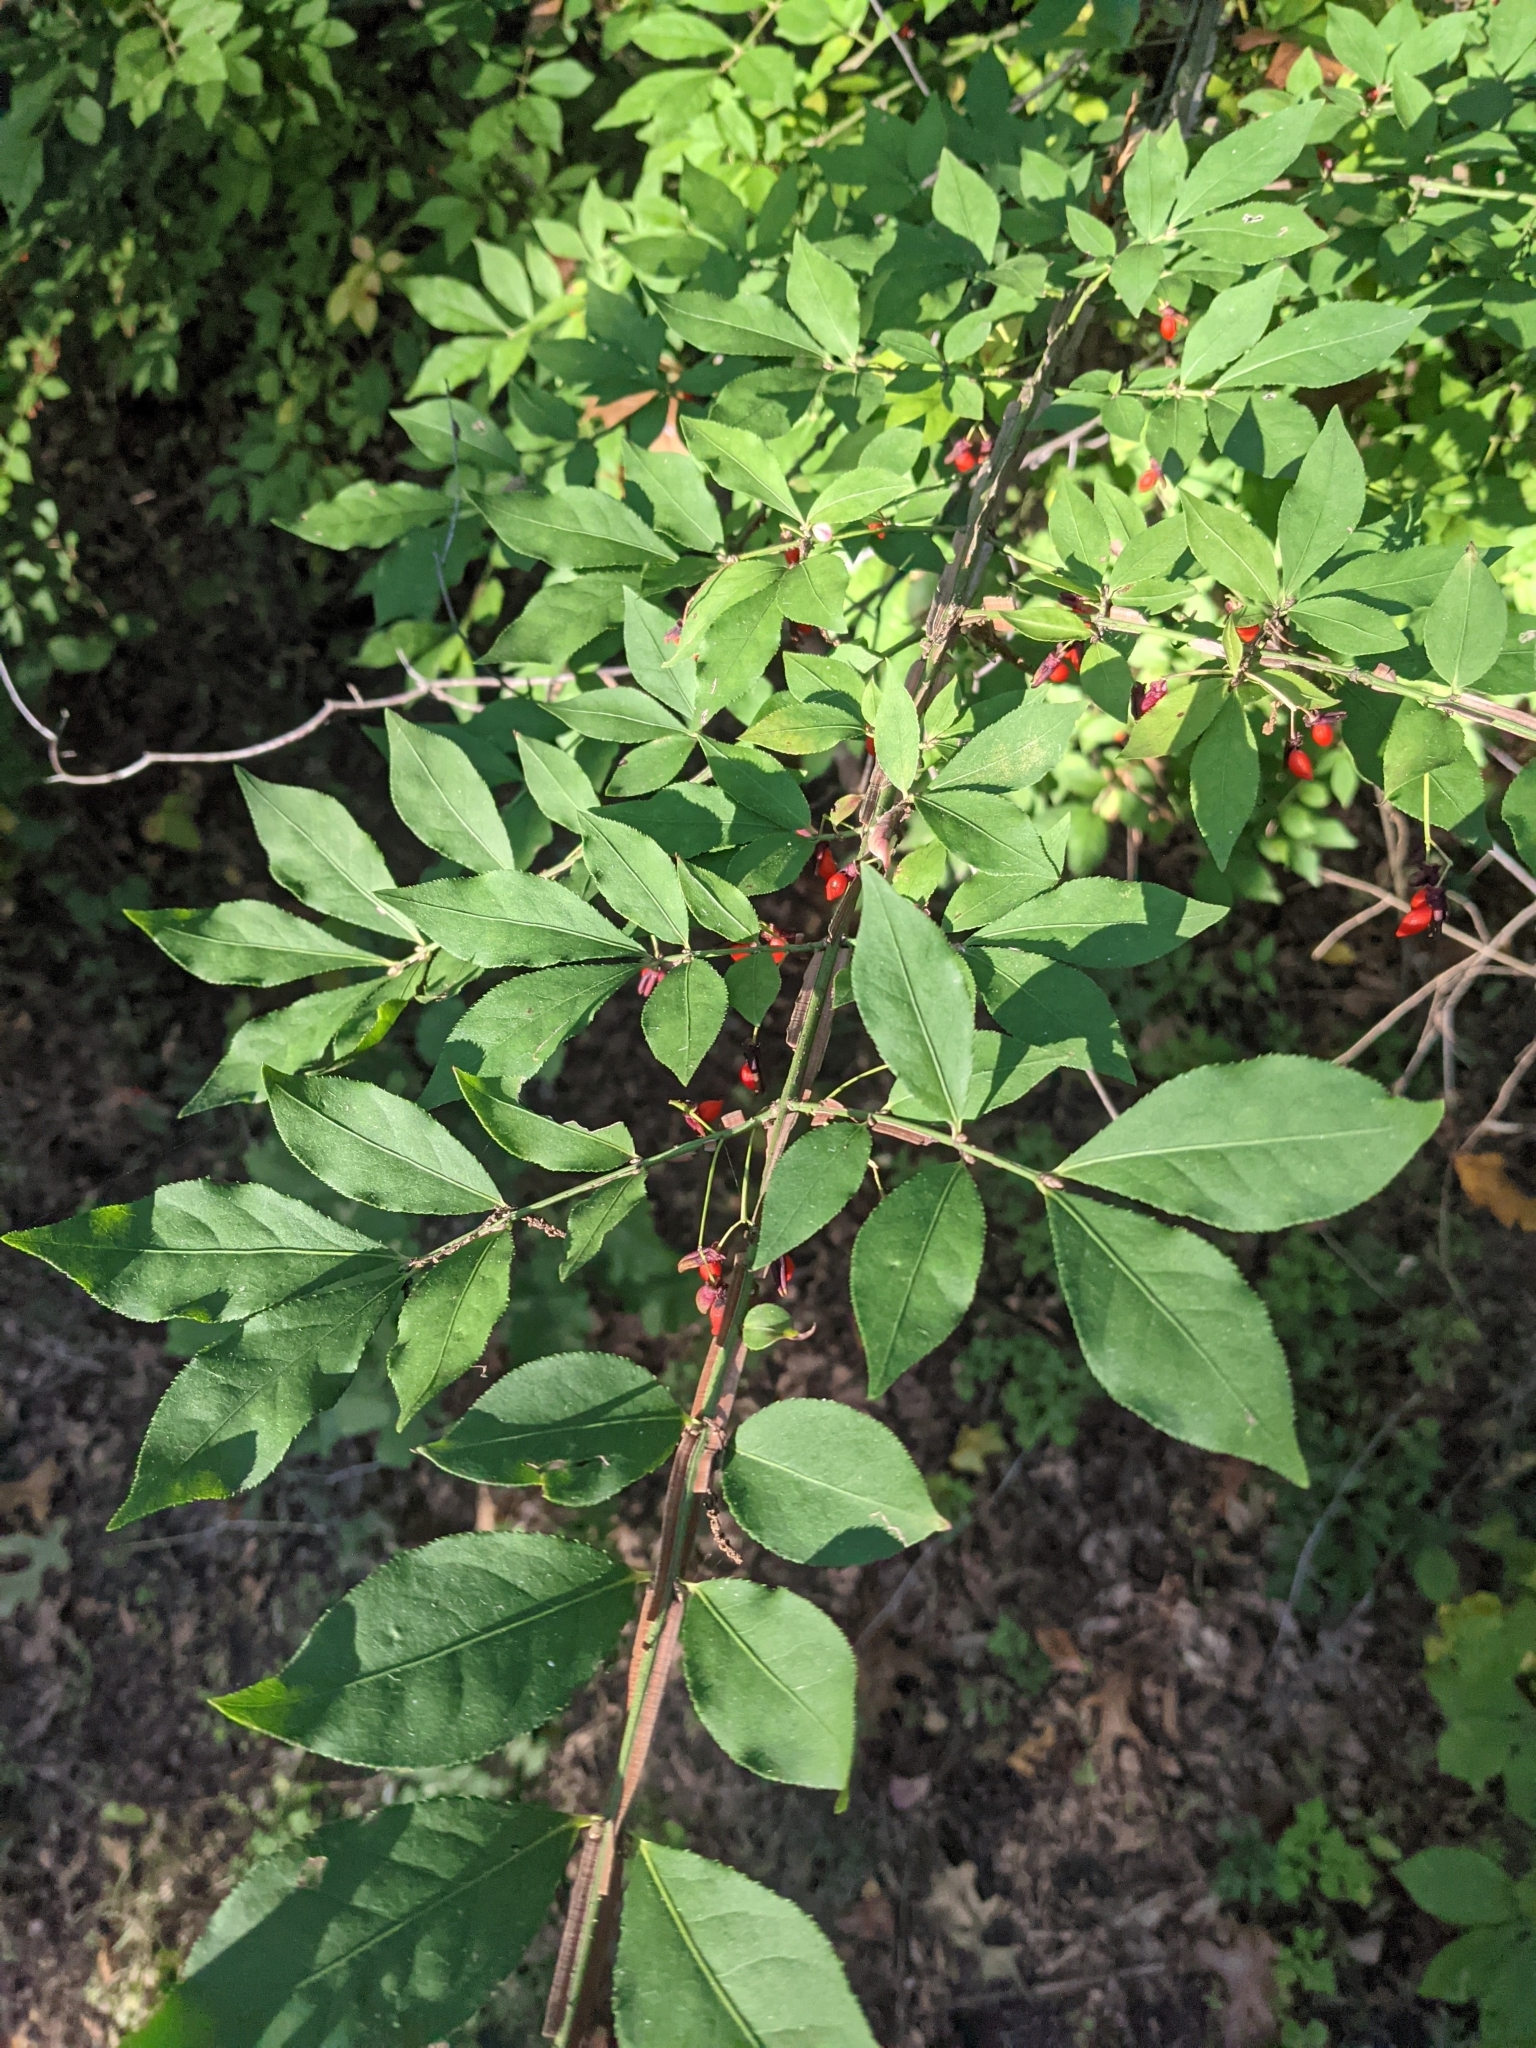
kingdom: Plantae
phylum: Tracheophyta
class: Magnoliopsida
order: Celastrales
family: Celastraceae
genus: Euonymus
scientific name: Euonymus alatus
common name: Winged euonymus
